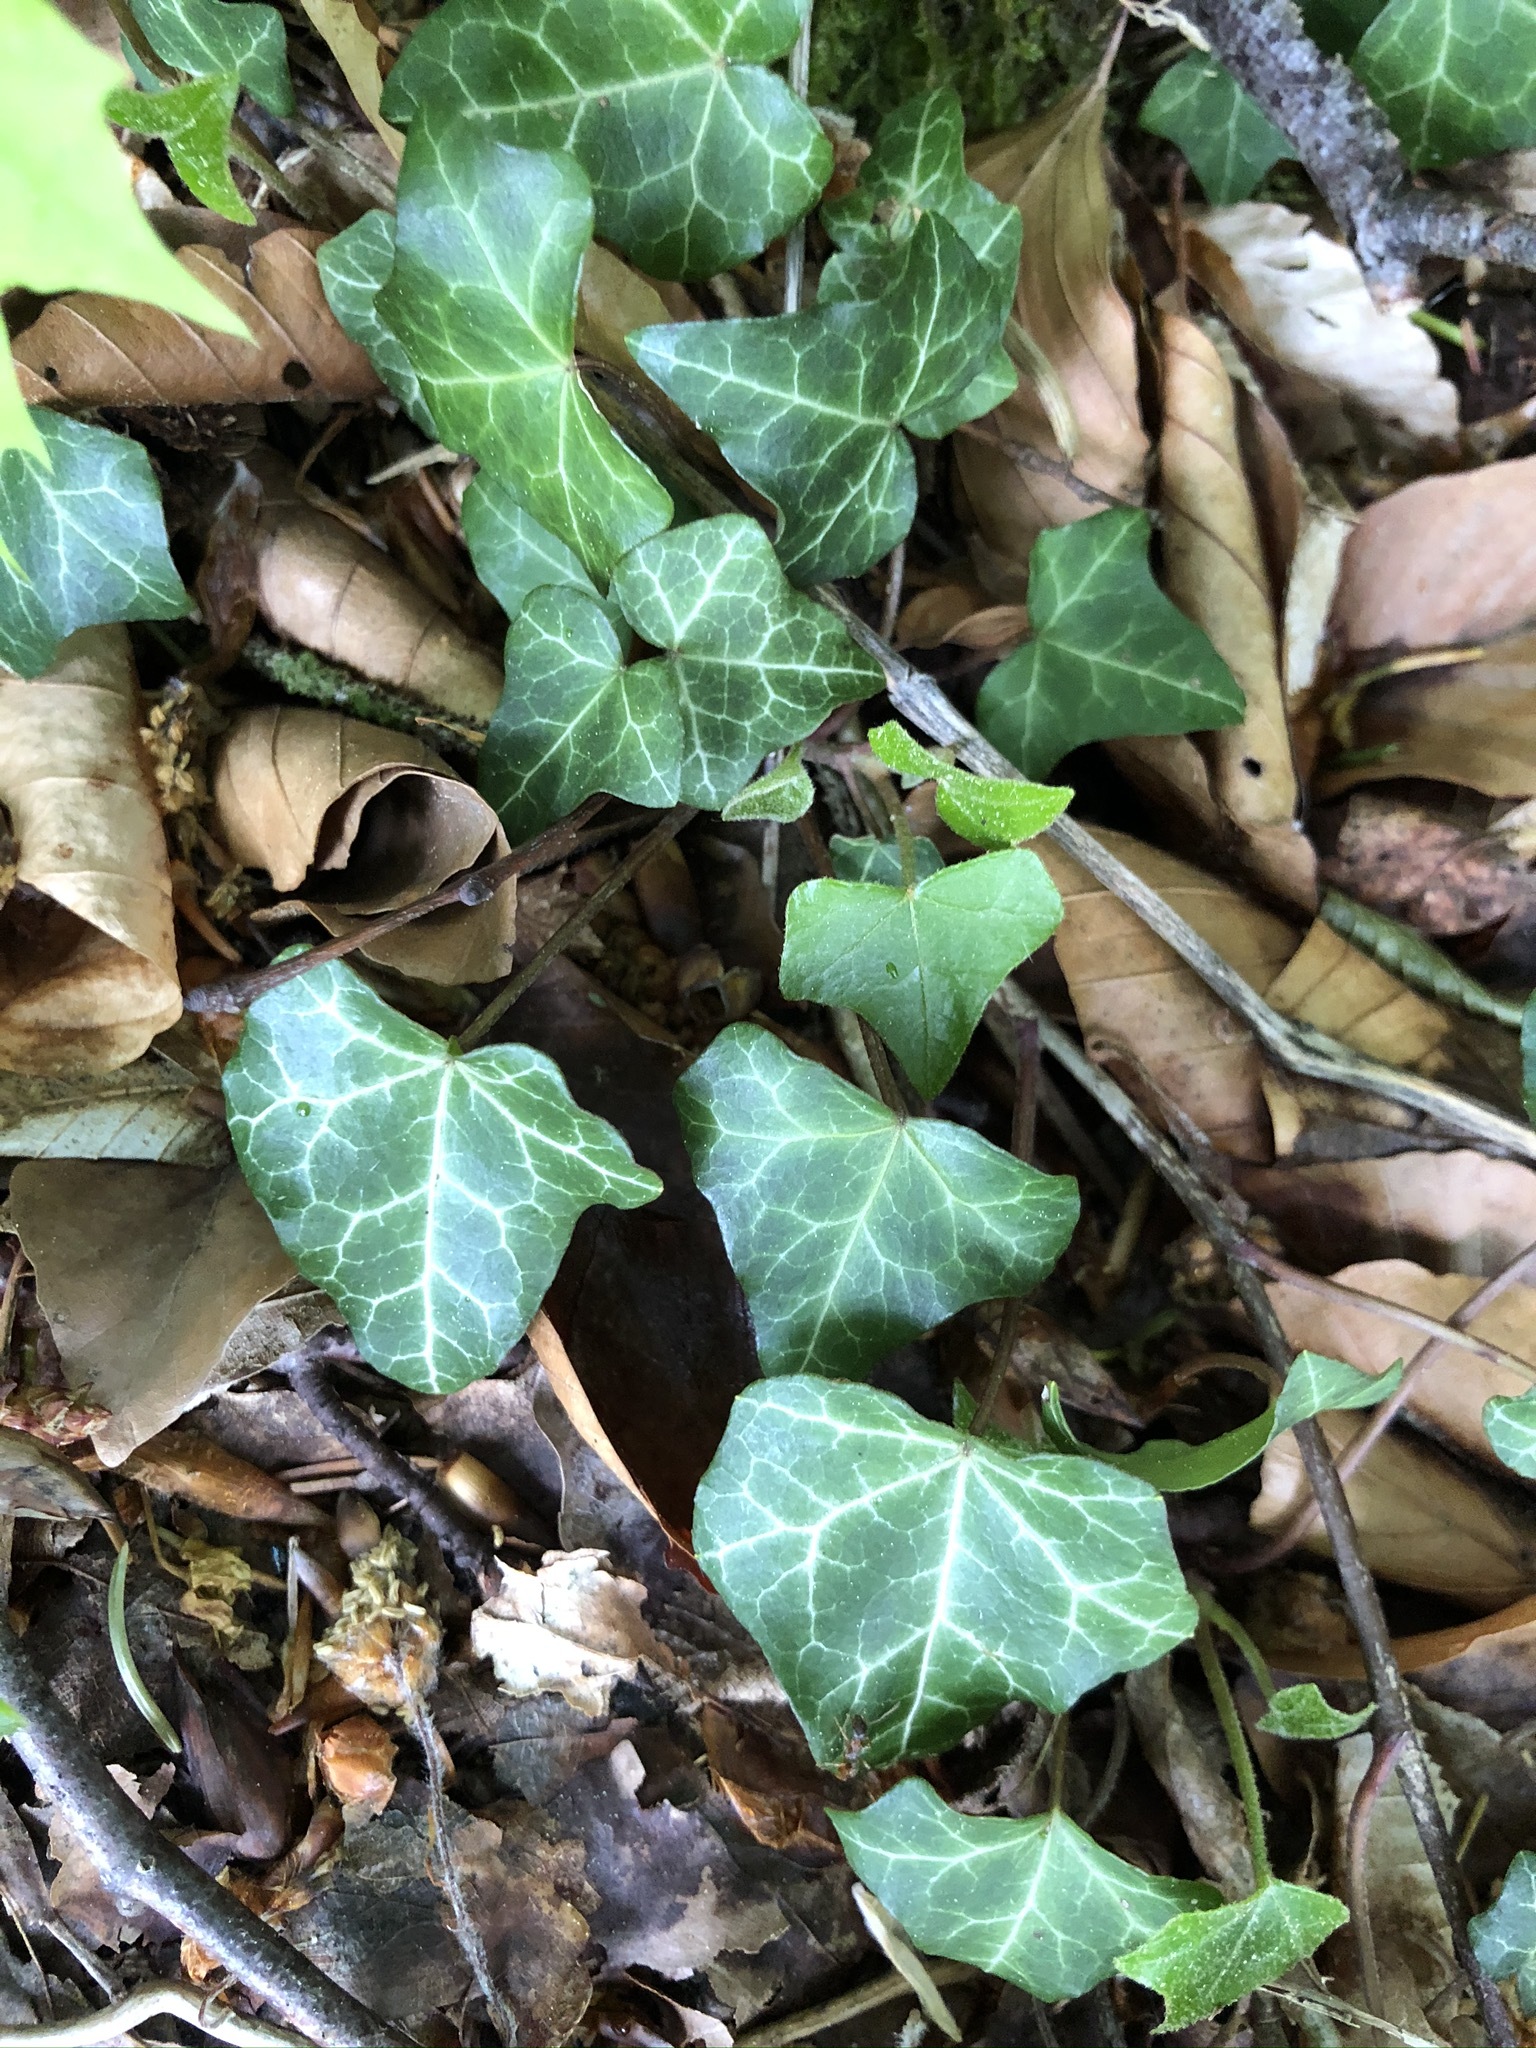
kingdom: Plantae
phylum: Tracheophyta
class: Magnoliopsida
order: Apiales
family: Araliaceae
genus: Hedera
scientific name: Hedera helix
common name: Ivy
